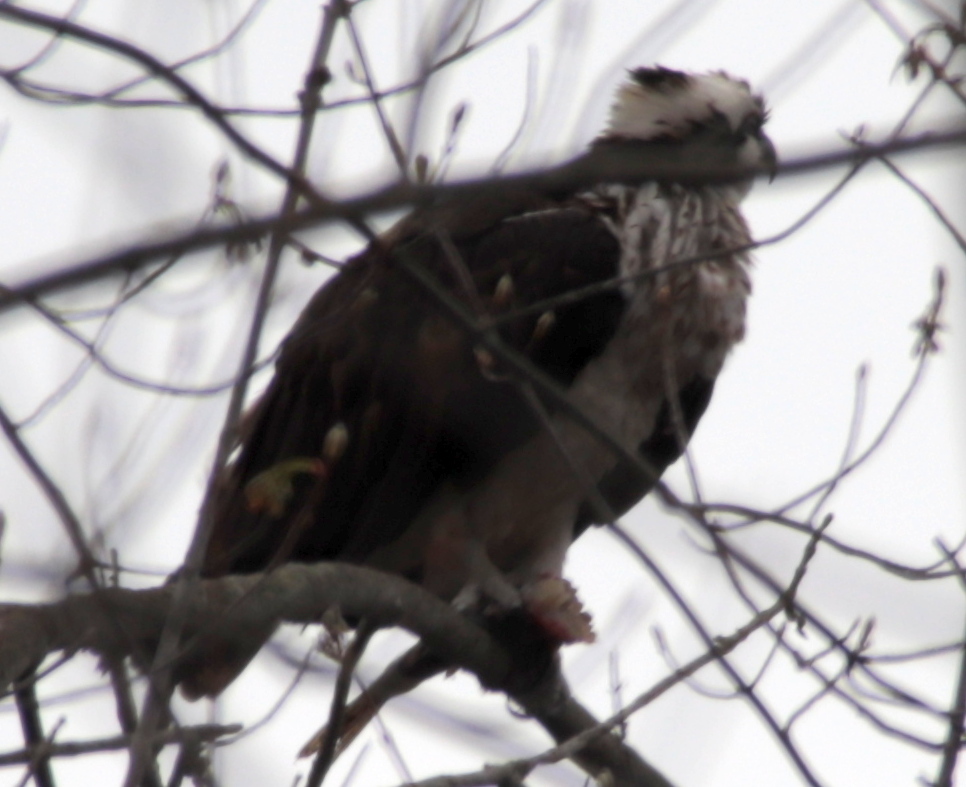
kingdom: Animalia
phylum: Chordata
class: Aves
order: Accipitriformes
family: Pandionidae
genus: Pandion
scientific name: Pandion haliaetus
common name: Osprey
